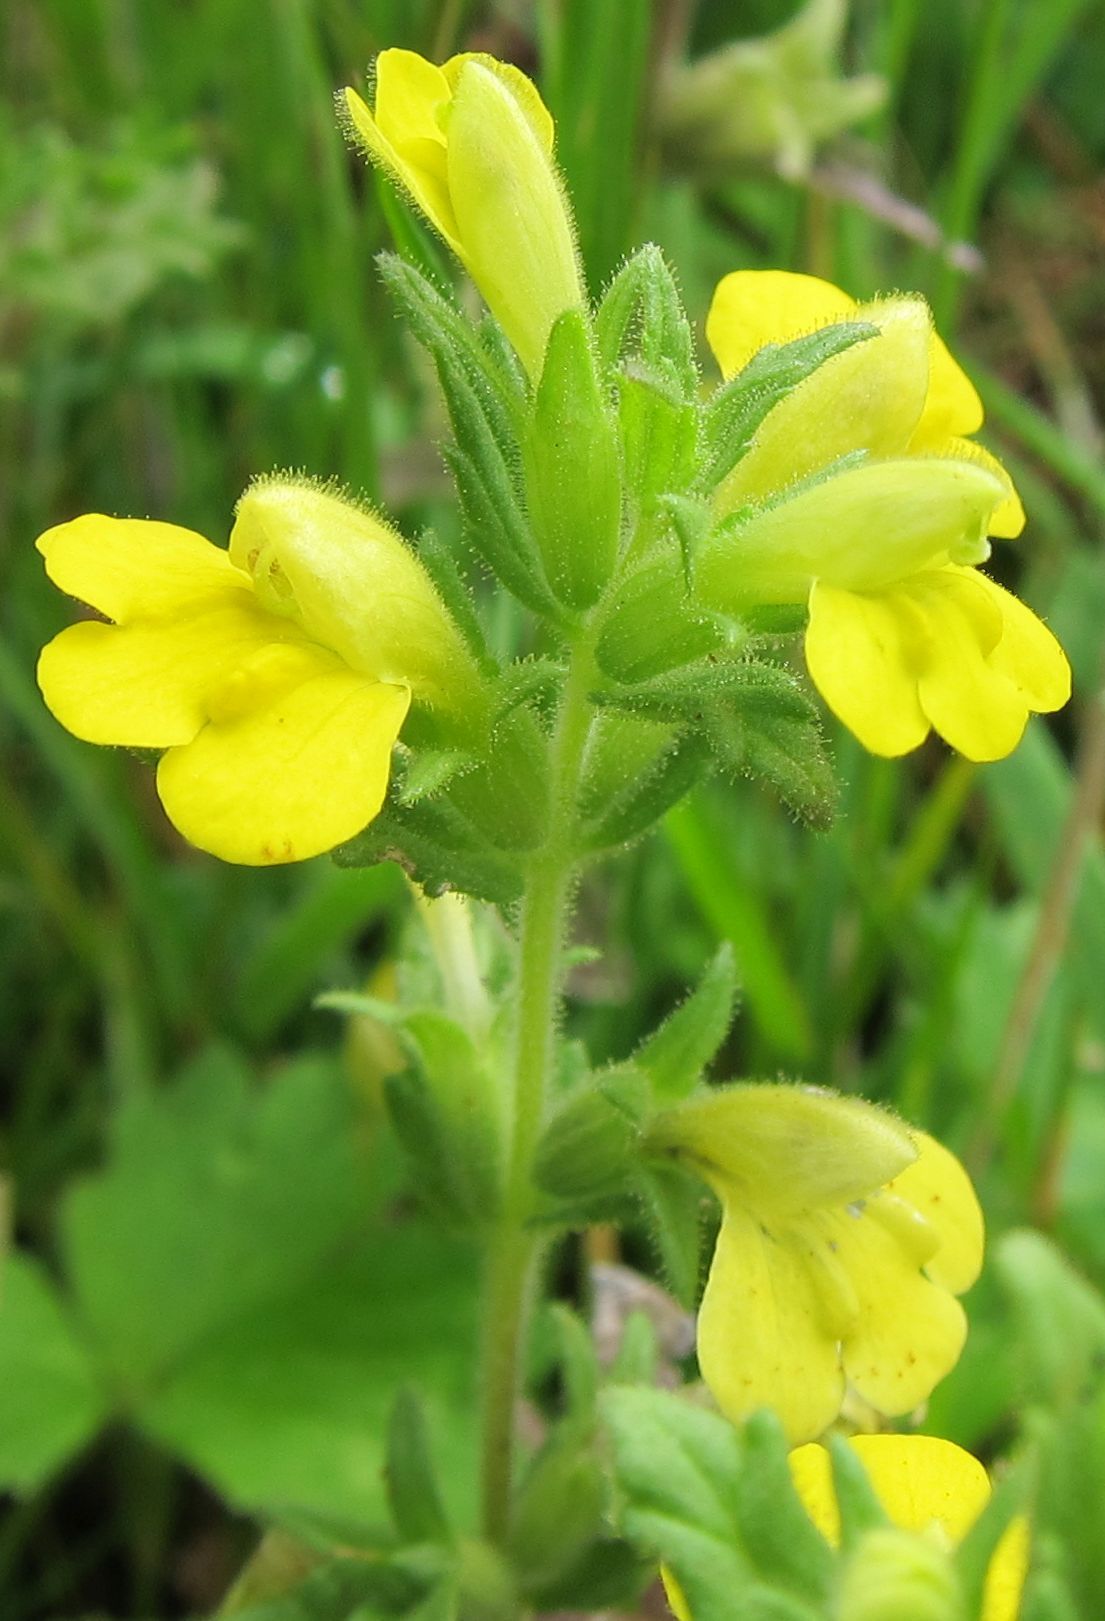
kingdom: Plantae
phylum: Tracheophyta
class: Magnoliopsida
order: Lamiales
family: Orobanchaceae
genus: Bellardia
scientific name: Bellardia viscosa
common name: Sticky parentucellia
